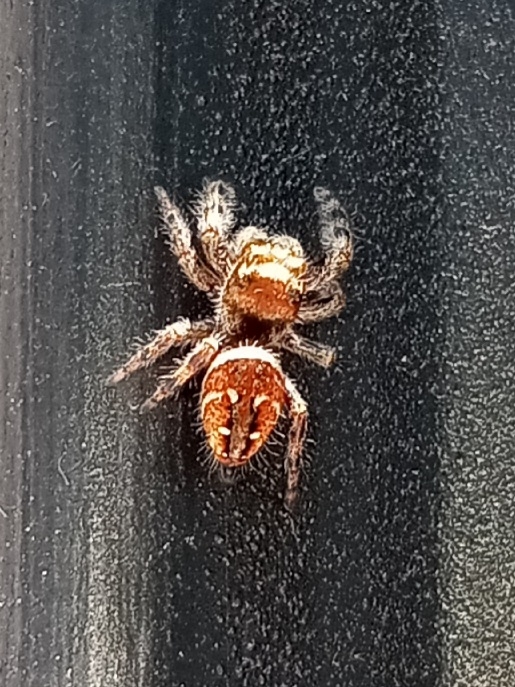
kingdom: Animalia
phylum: Arthropoda
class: Arachnida
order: Araneae
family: Salticidae
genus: Phidippus
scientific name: Phidippus clarus
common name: Brilliant jumping spider
